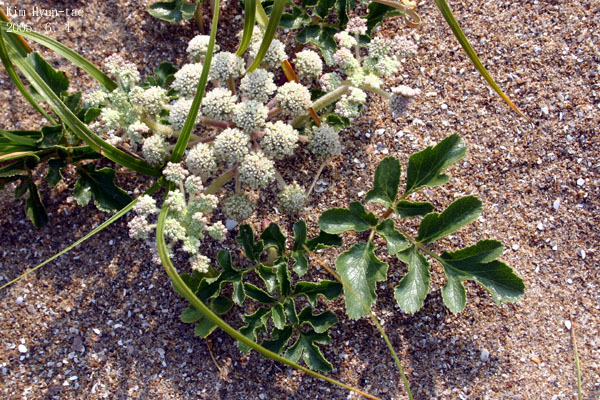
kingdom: Plantae
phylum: Tracheophyta
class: Magnoliopsida
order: Apiales
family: Apiaceae
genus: Glehnia
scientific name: Glehnia littoralis
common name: Beach silvertop
